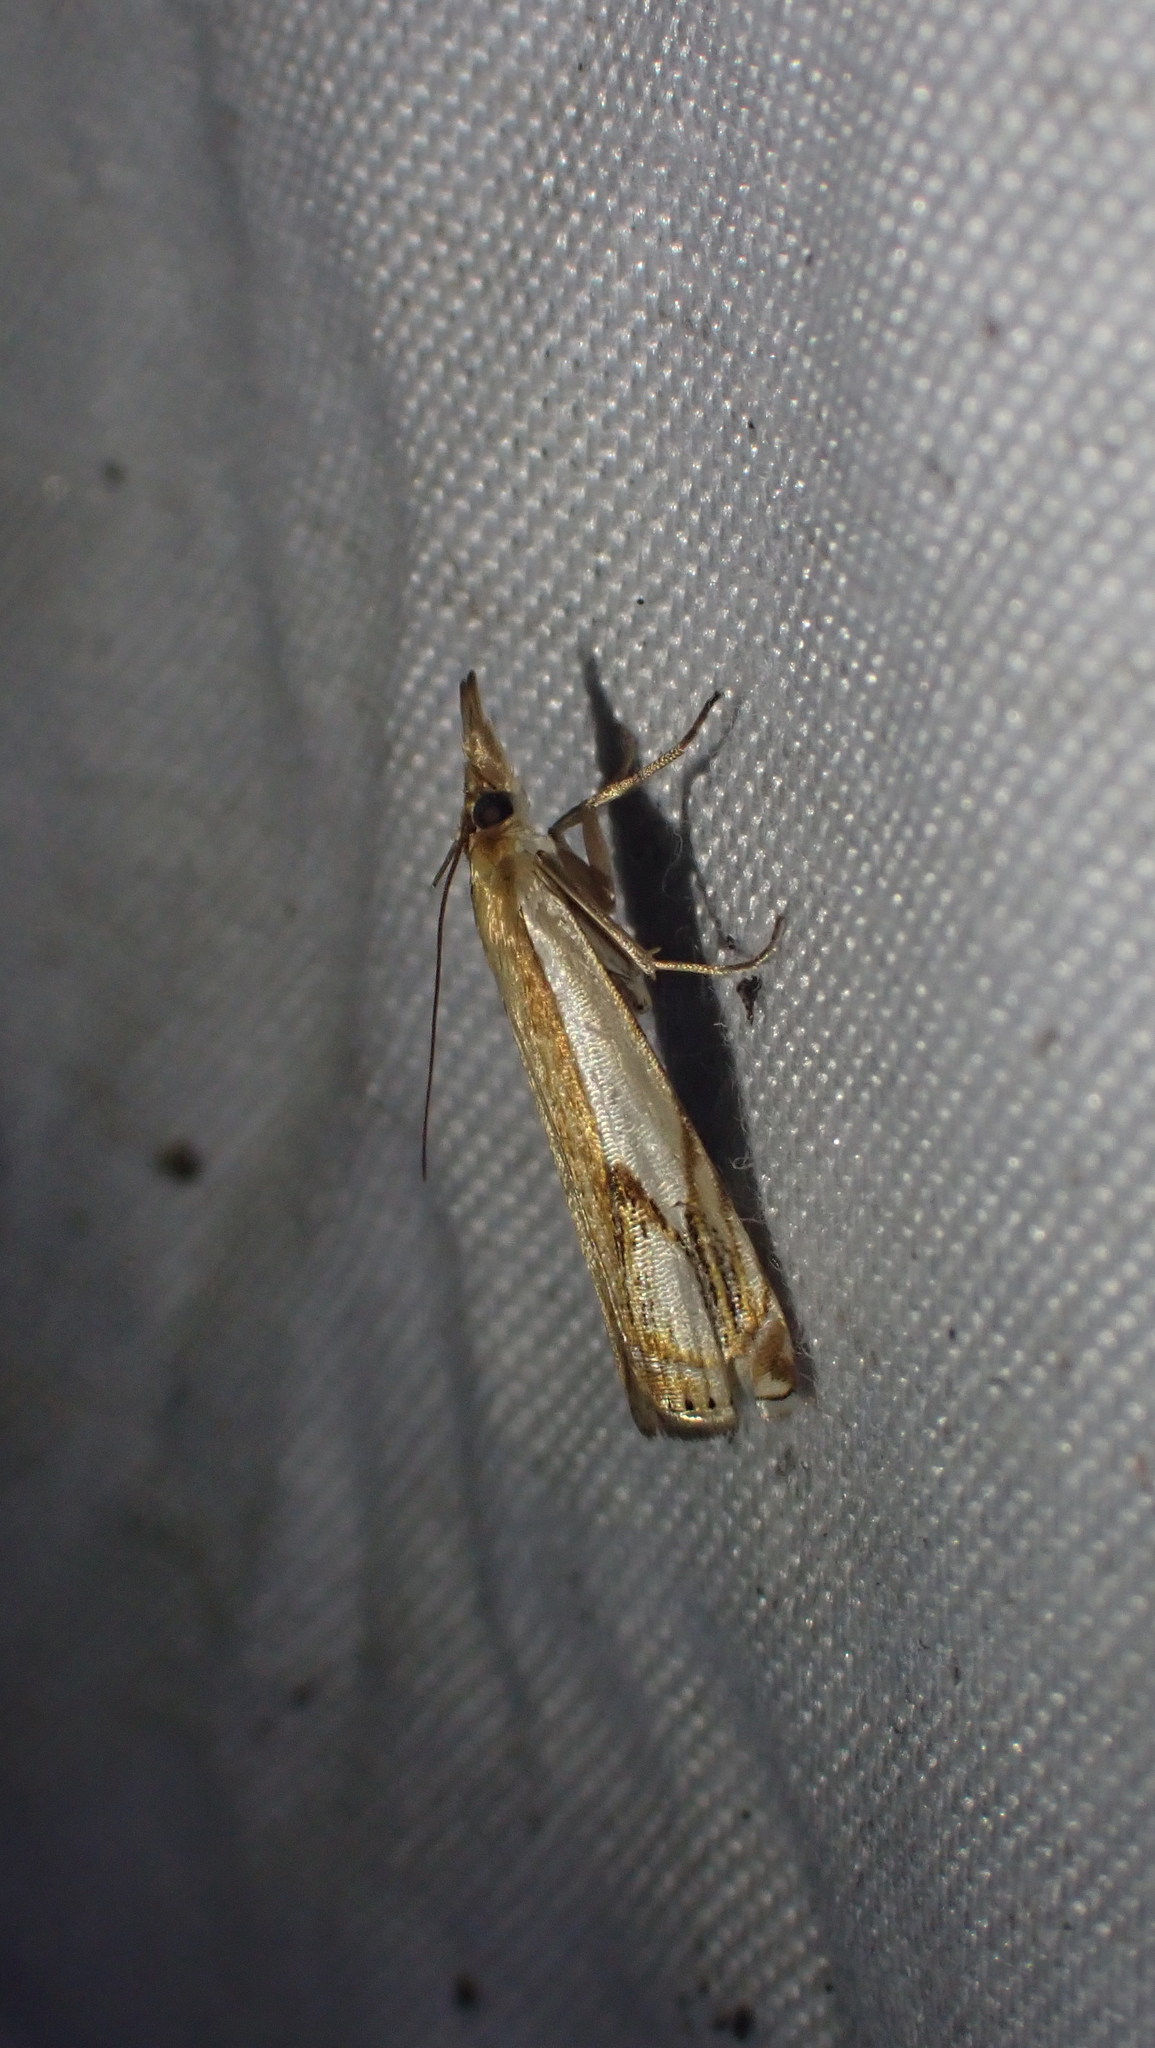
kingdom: Animalia
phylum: Arthropoda
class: Insecta
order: Lepidoptera
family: Crambidae
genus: Crambus
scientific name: Crambus agitatellus
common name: Double-banded grass-veneer
